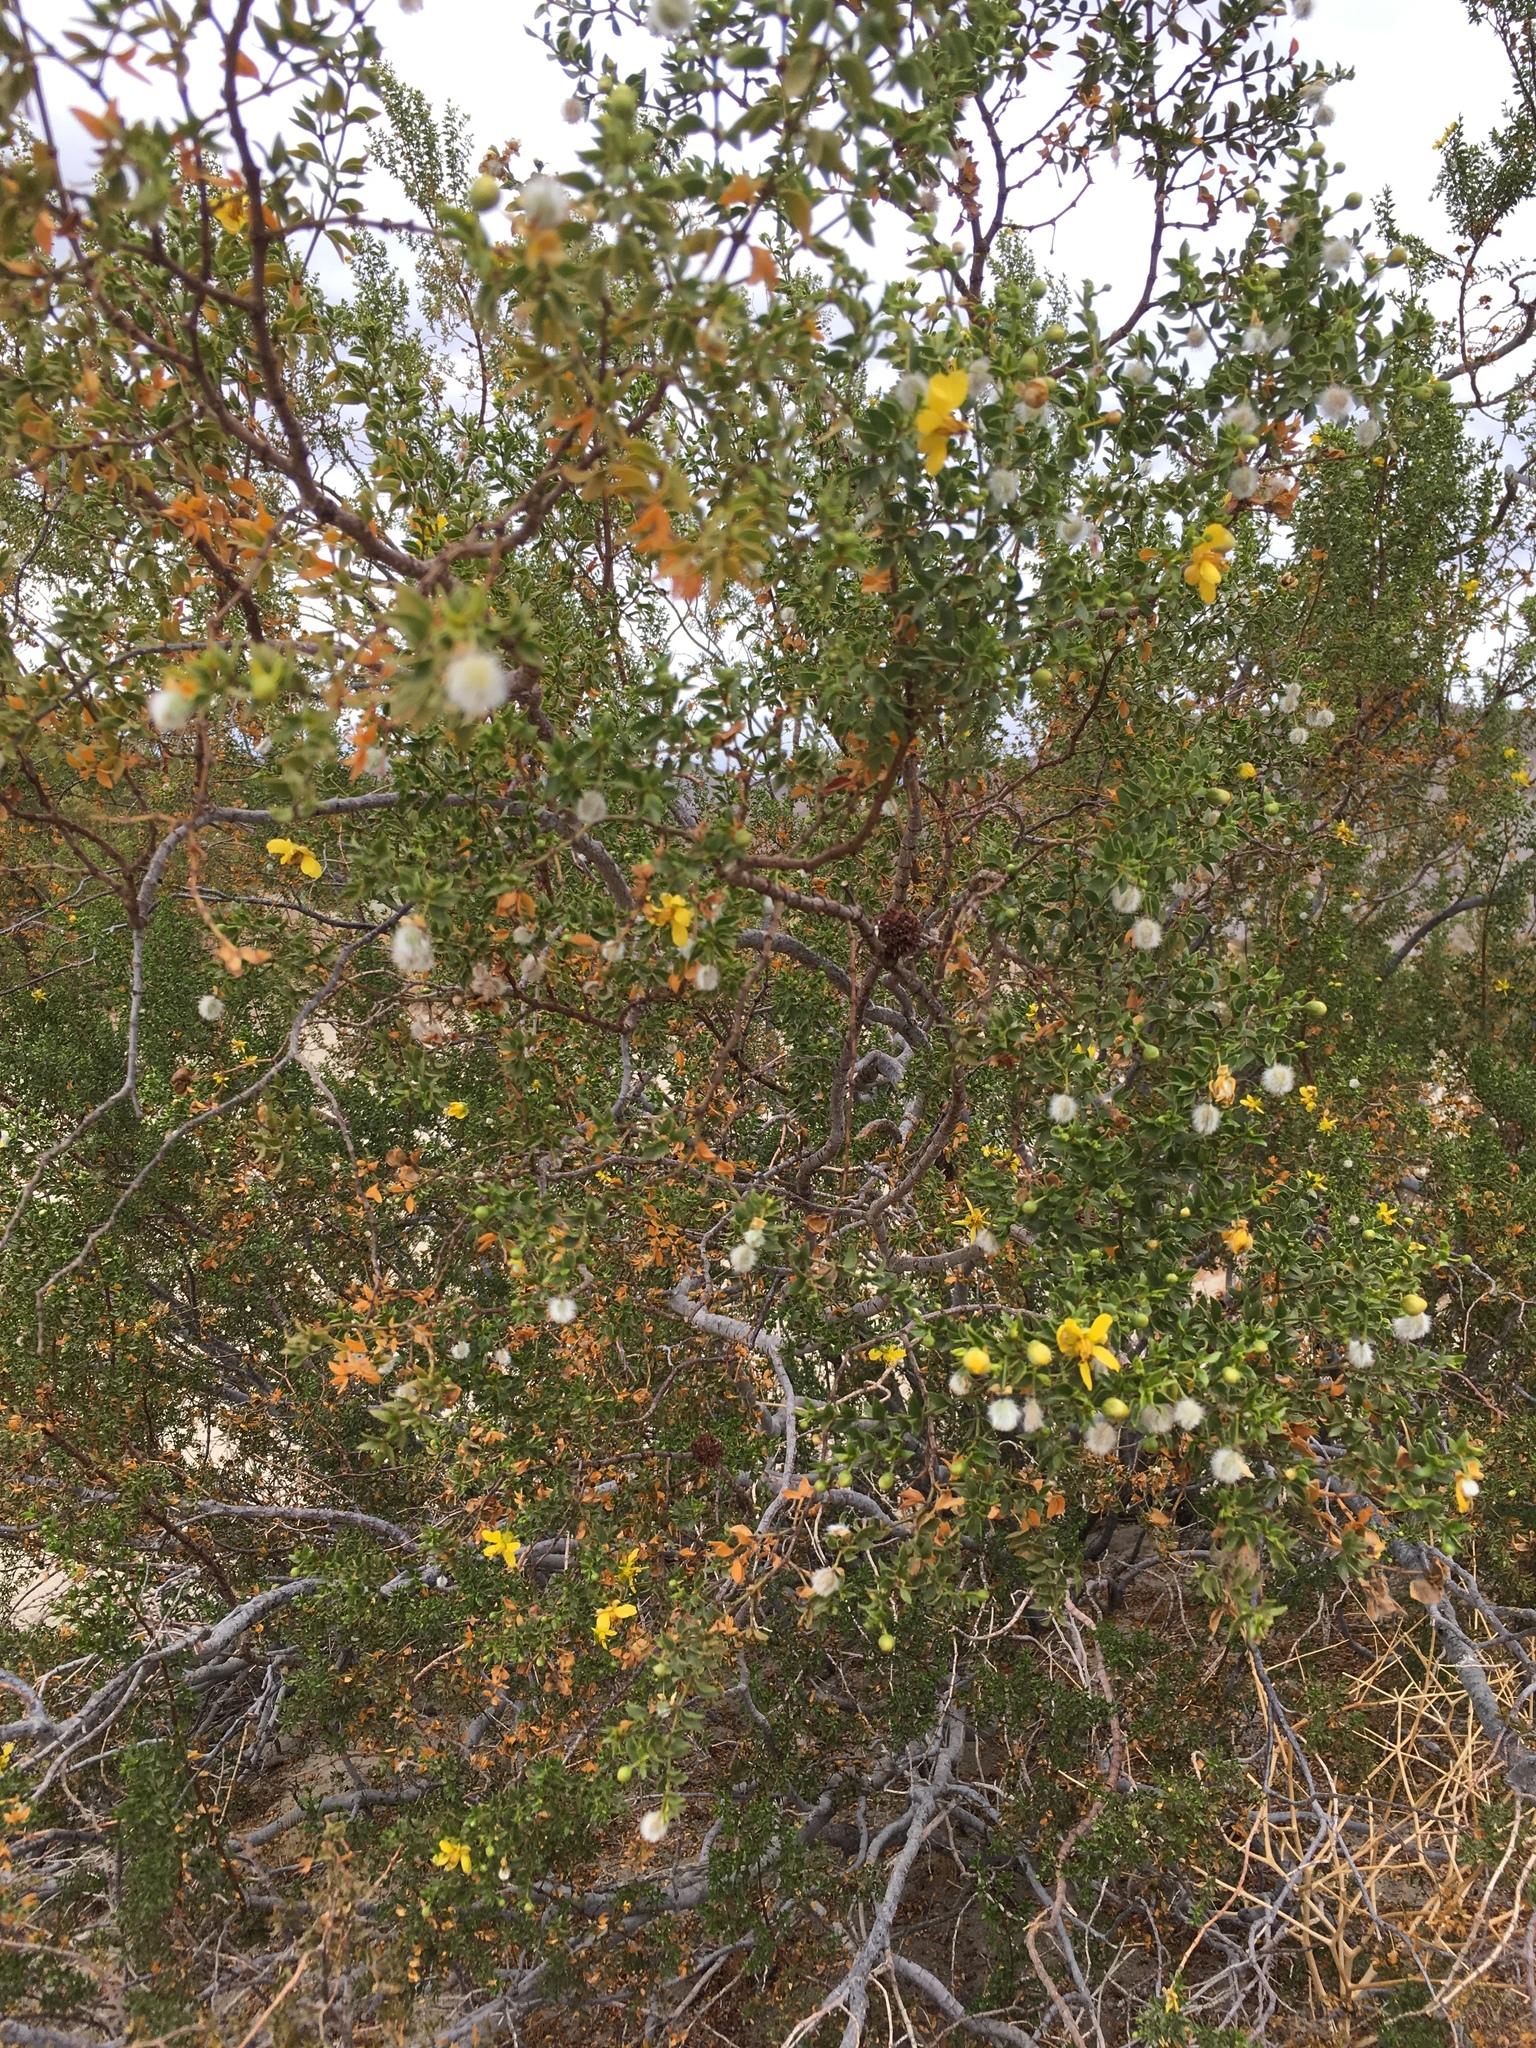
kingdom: Plantae
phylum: Tracheophyta
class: Magnoliopsida
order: Zygophyllales
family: Zygophyllaceae
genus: Larrea
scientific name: Larrea tridentata
